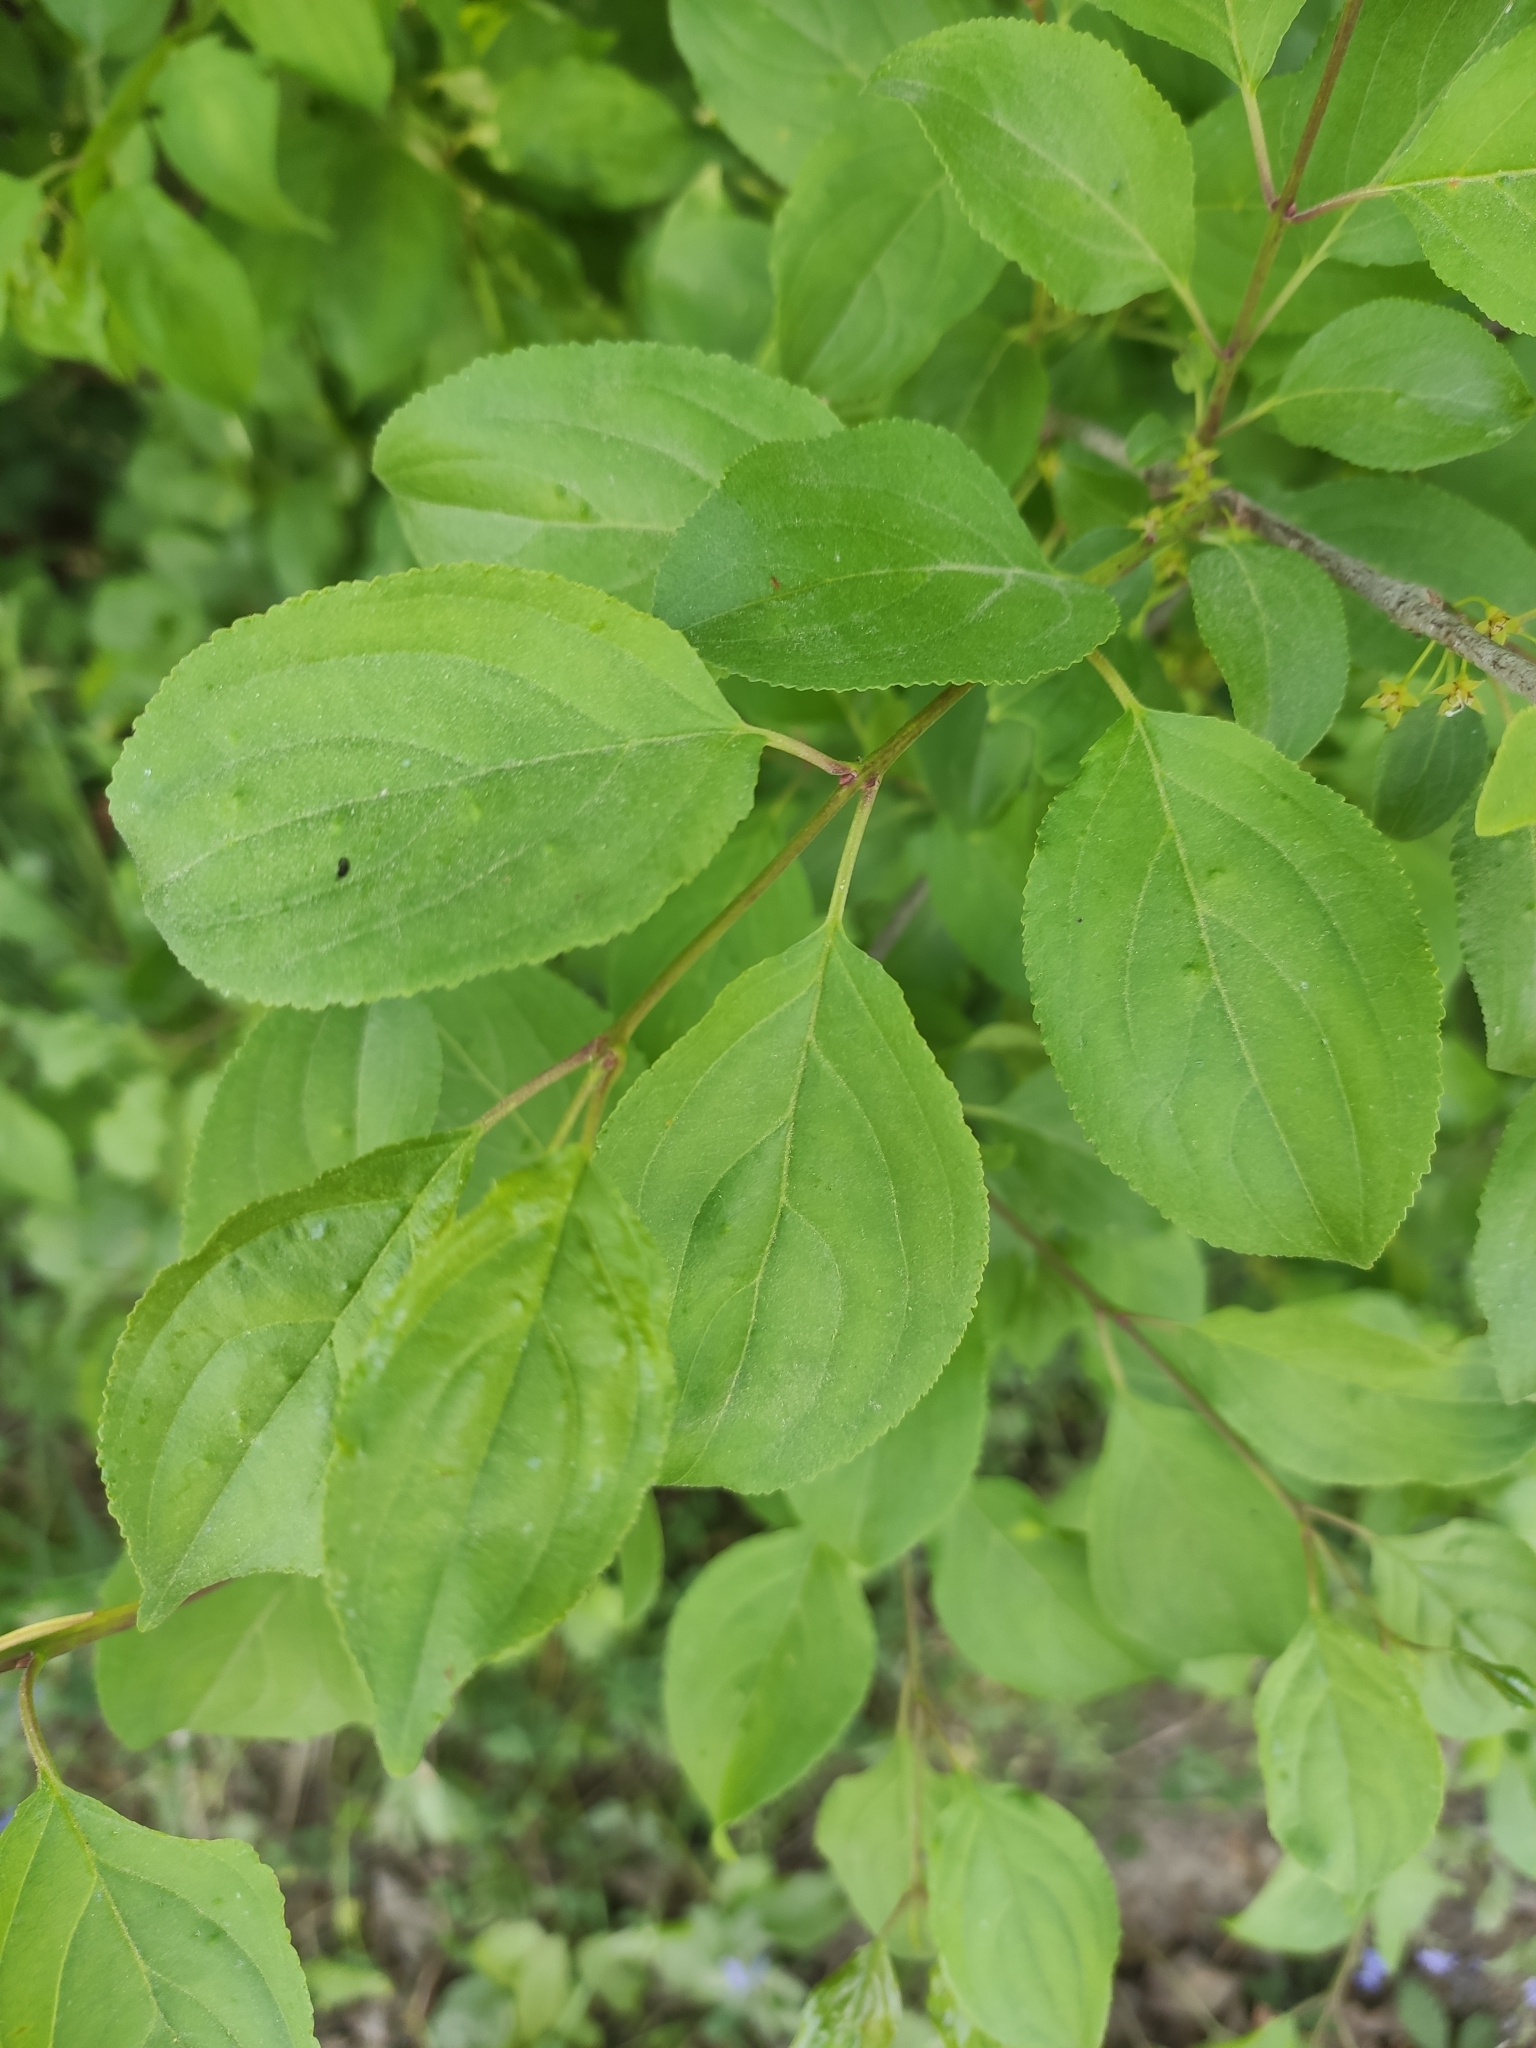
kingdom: Plantae
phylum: Tracheophyta
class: Magnoliopsida
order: Rosales
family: Rhamnaceae
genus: Rhamnus
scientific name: Rhamnus cathartica
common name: Common buckthorn
